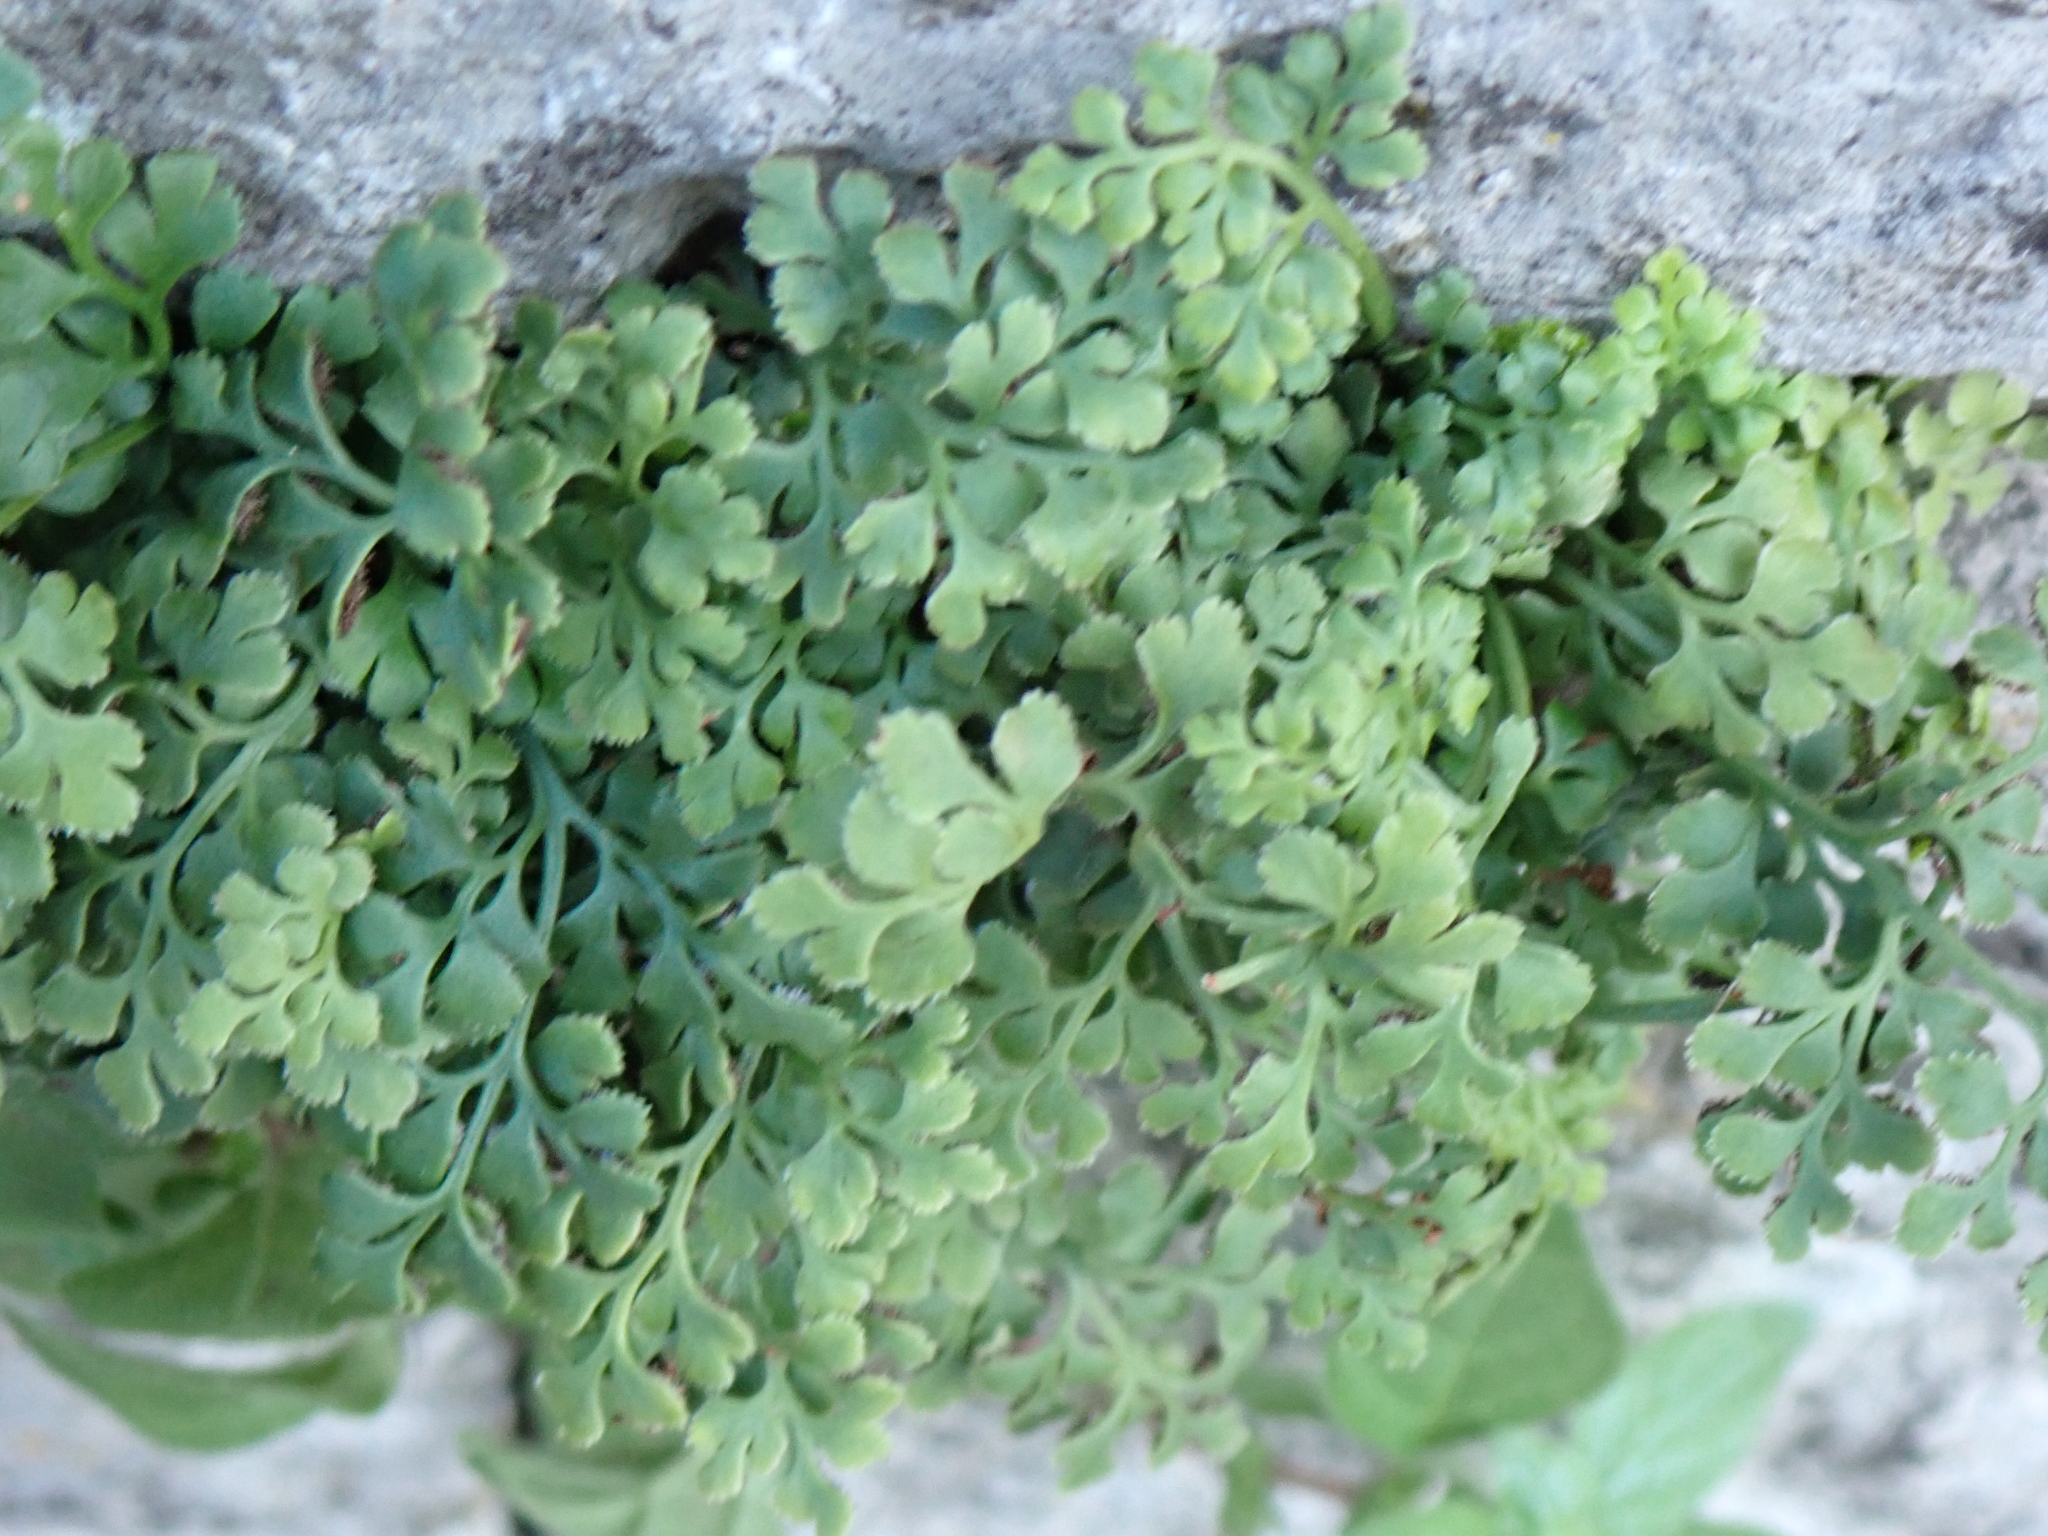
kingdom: Plantae
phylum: Tracheophyta
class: Polypodiopsida
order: Polypodiales
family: Aspleniaceae
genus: Asplenium
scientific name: Asplenium ruta-muraria
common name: Wall-rue
